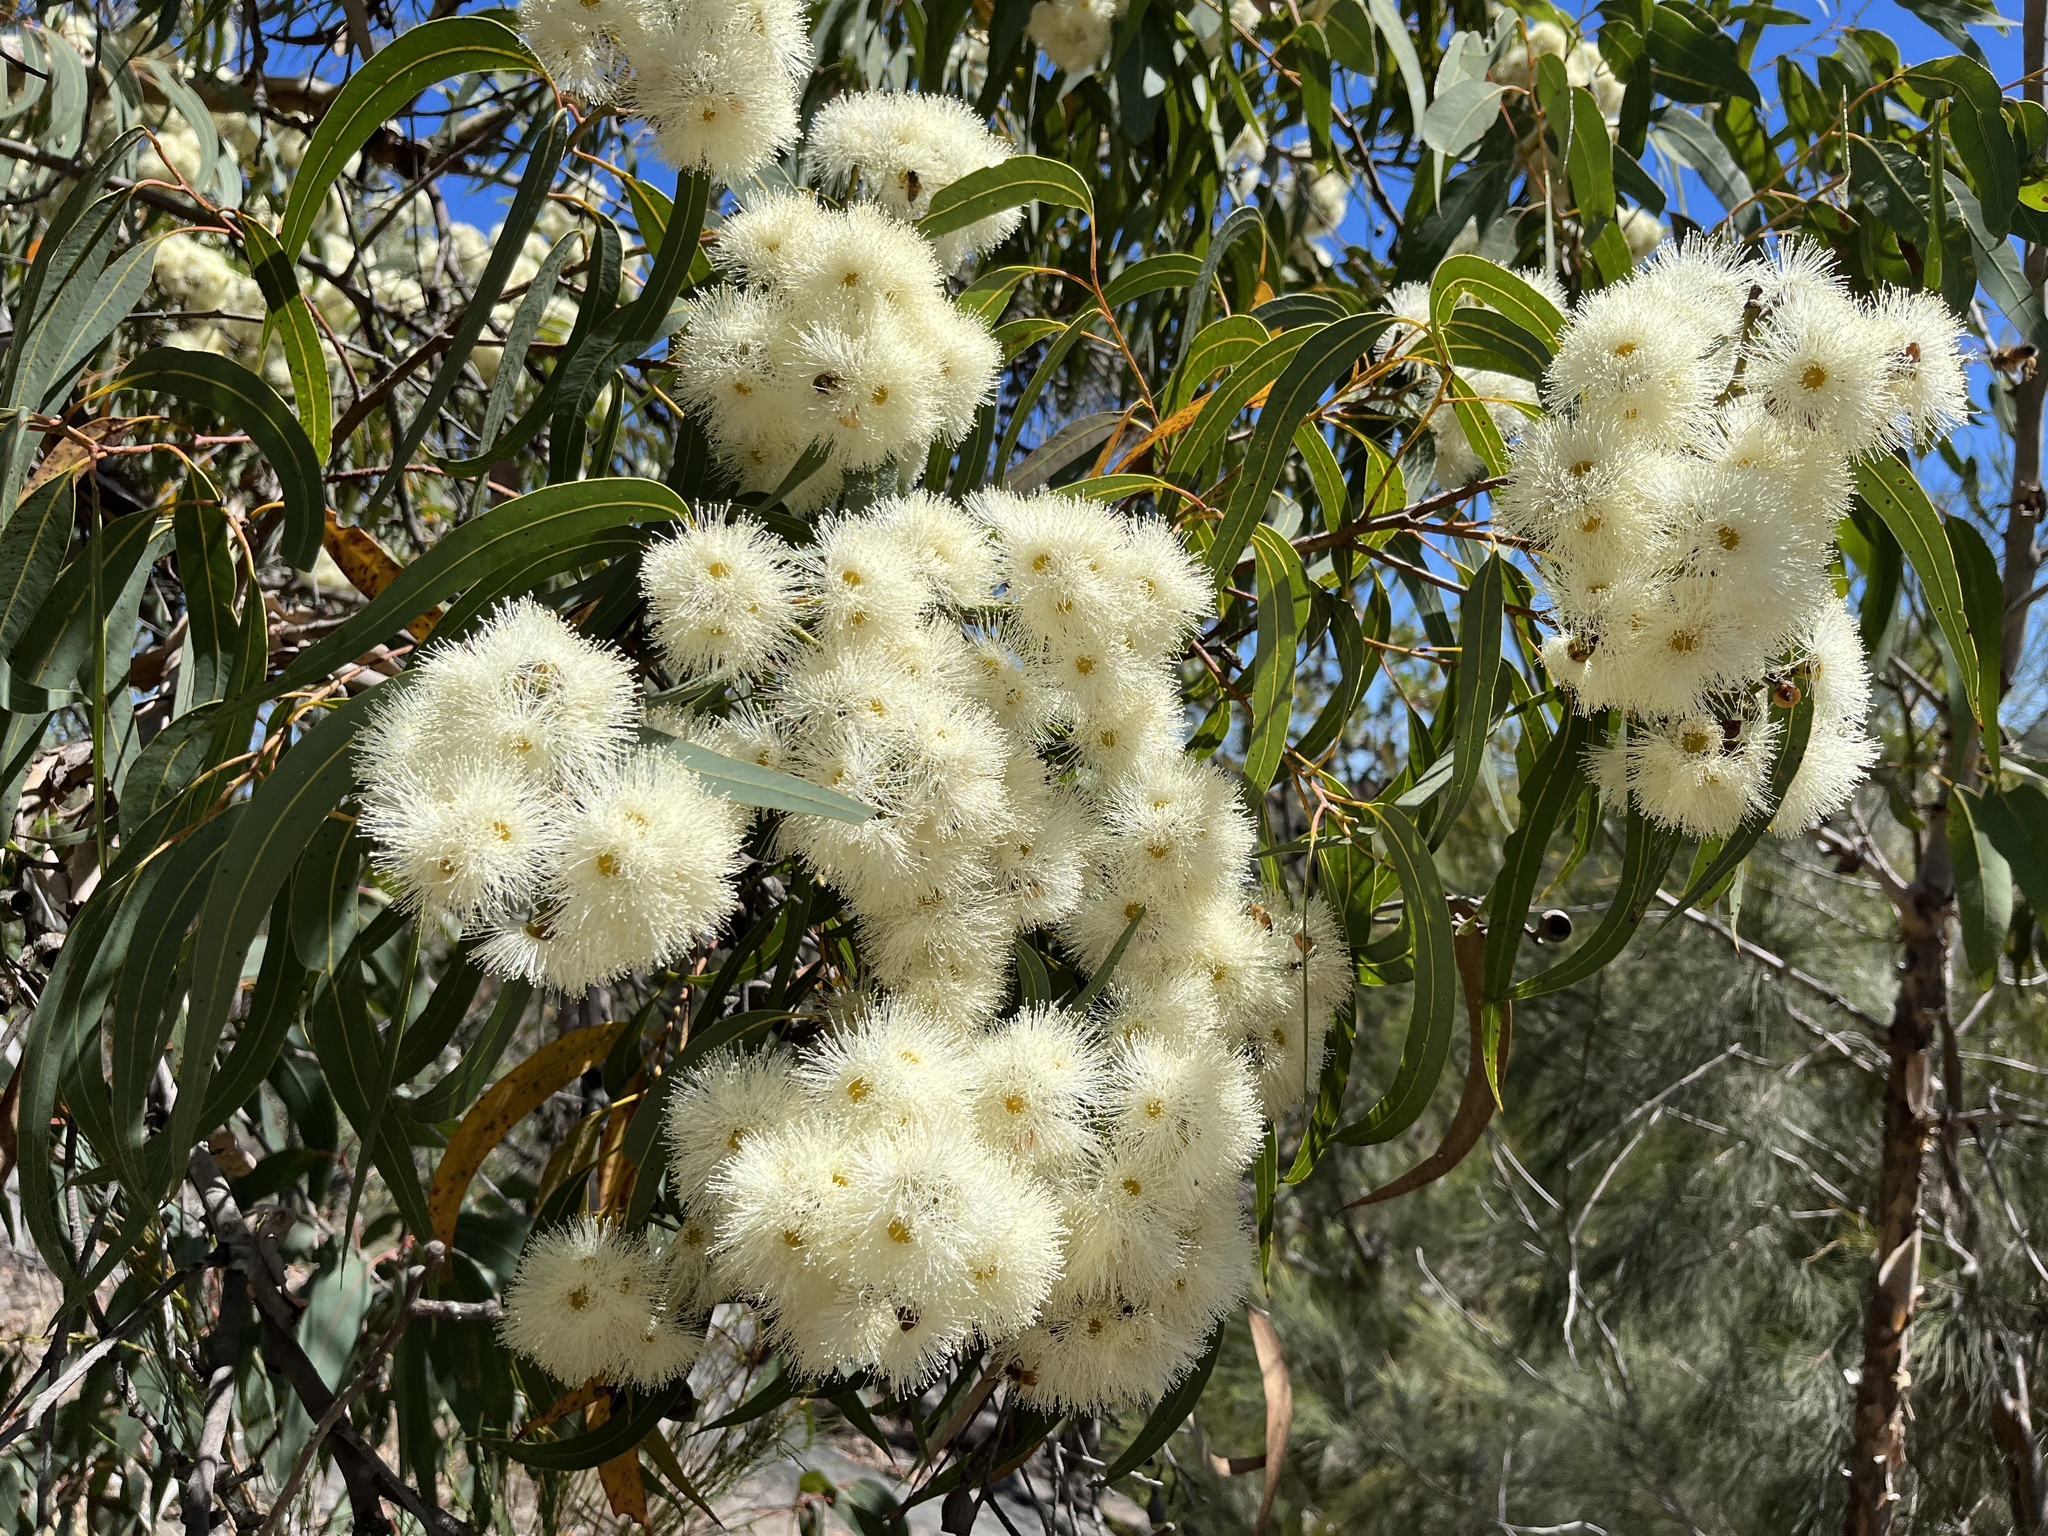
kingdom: Plantae
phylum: Tracheophyta
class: Magnoliopsida
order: Myrtales
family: Myrtaceae
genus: Corymbia
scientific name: Corymbia eximia
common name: Yellow bloodwood
